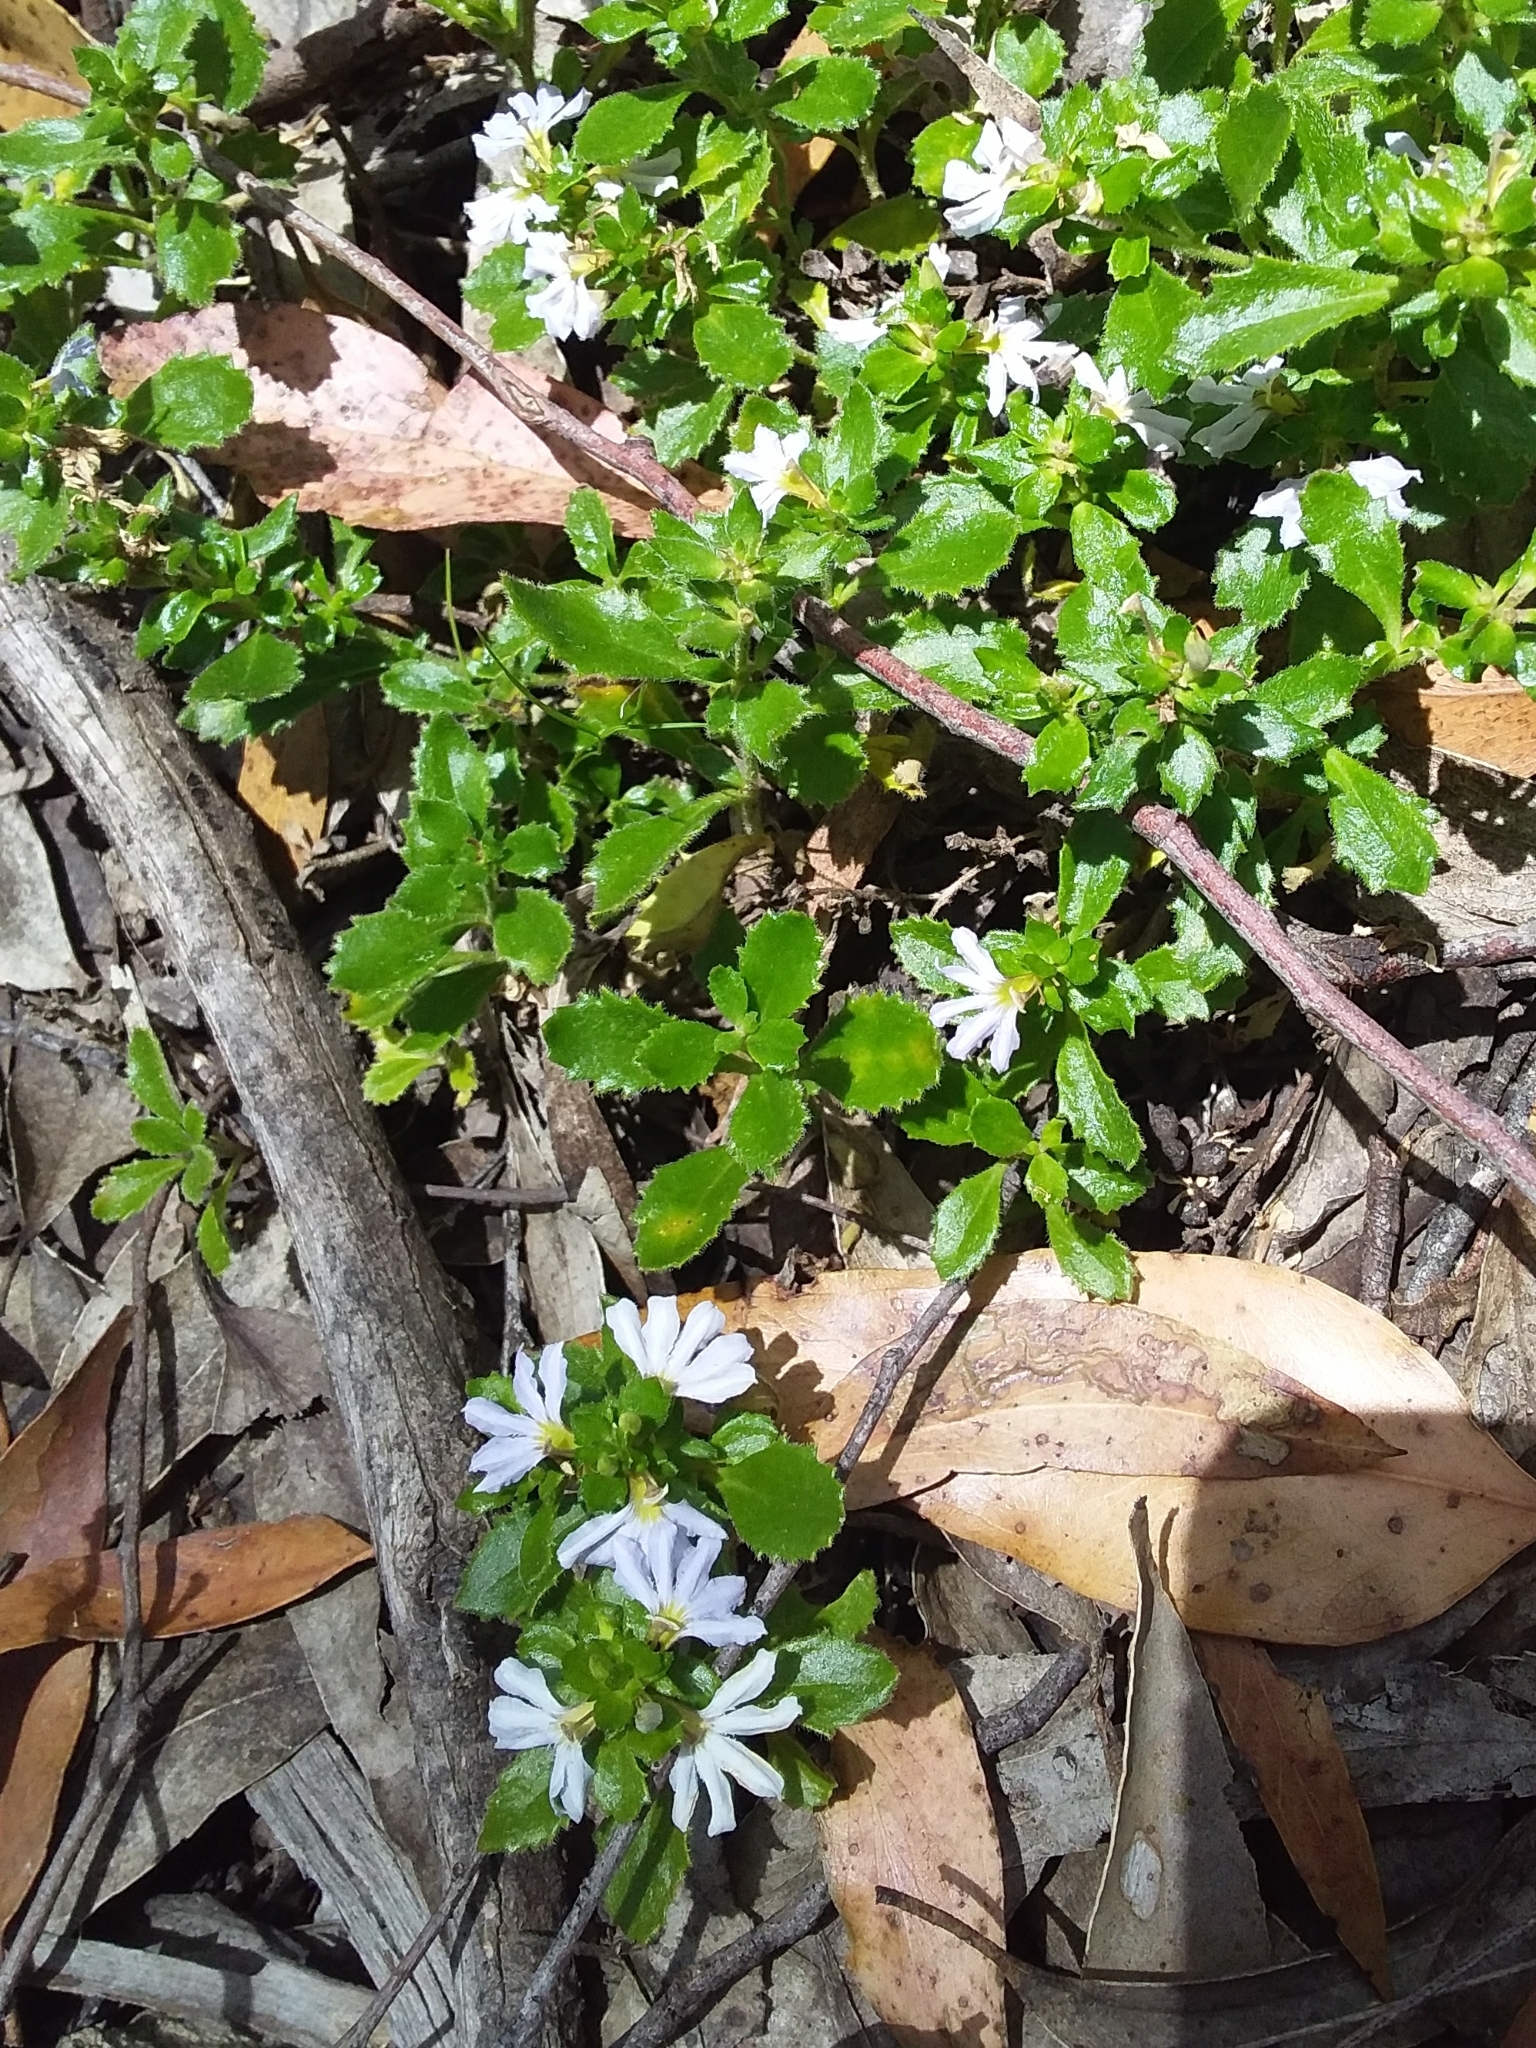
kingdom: Plantae
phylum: Tracheophyta
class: Magnoliopsida
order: Asterales
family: Goodeniaceae
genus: Scaevola
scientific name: Scaevola albida
